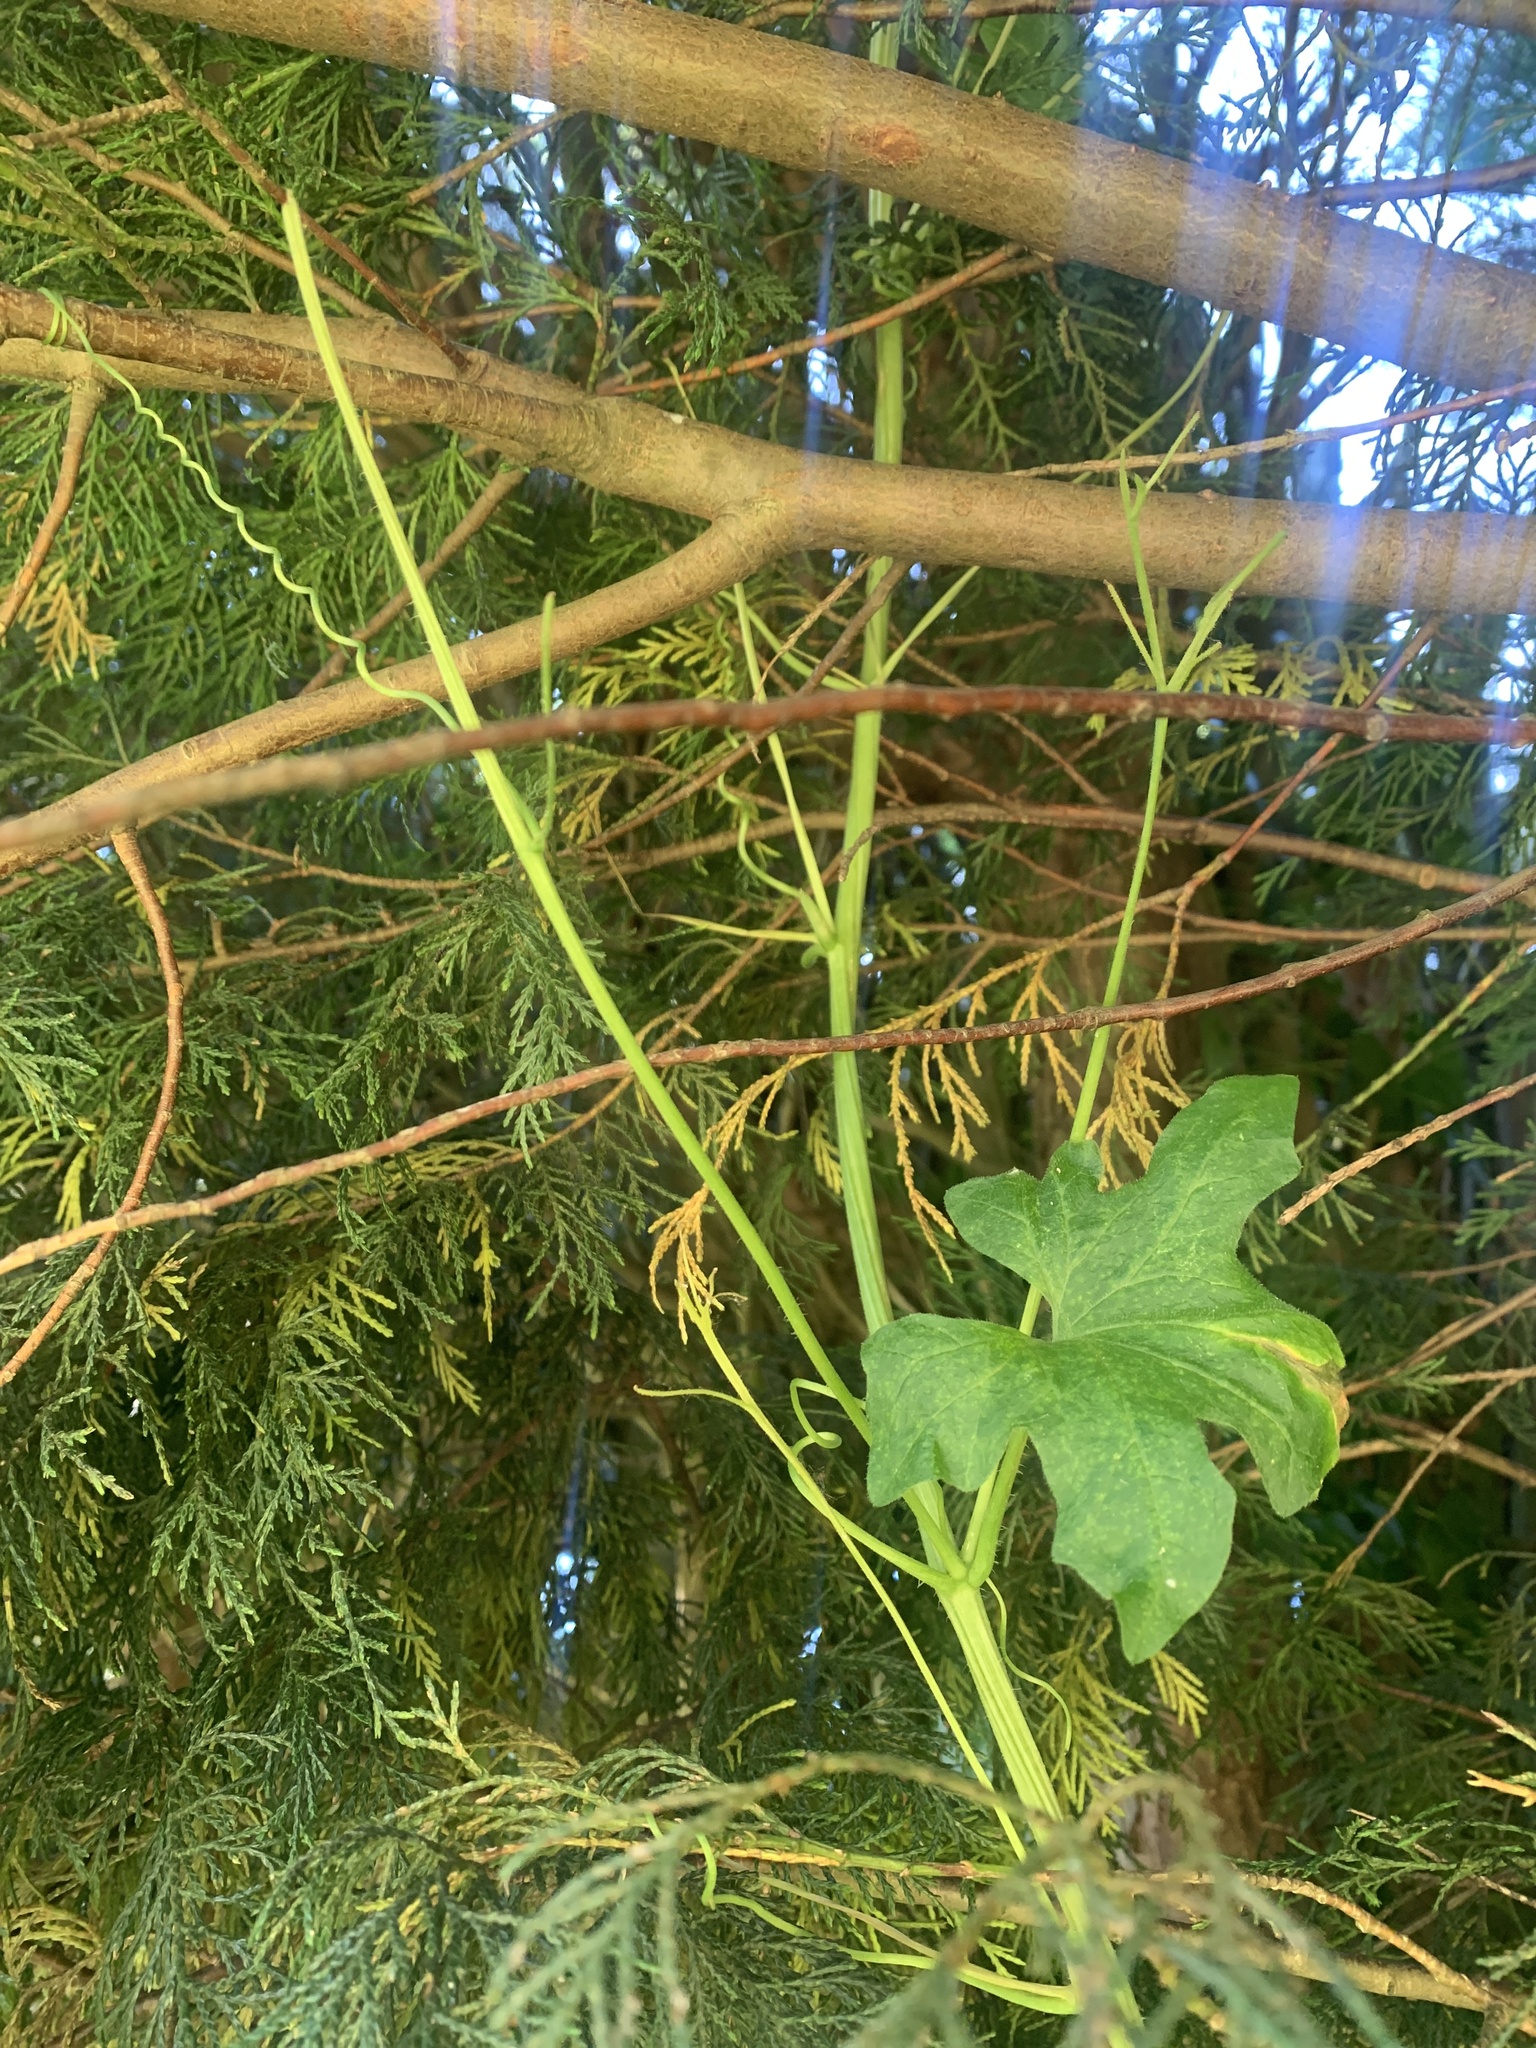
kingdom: Plantae
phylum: Tracheophyta
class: Magnoliopsida
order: Cucurbitales
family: Cucurbitaceae
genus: Bryonia
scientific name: Bryonia cretica
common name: Cretan bryony
